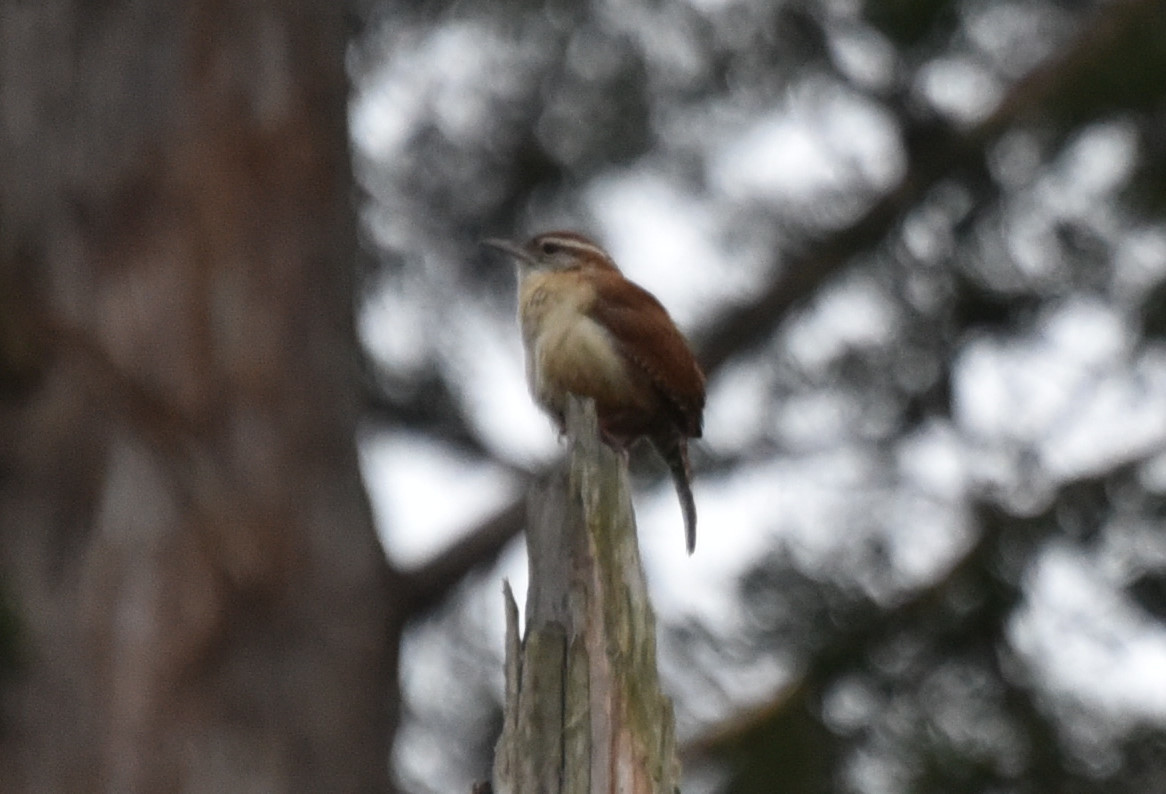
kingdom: Animalia
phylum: Chordata
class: Aves
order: Passeriformes
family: Troglodytidae
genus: Thryothorus
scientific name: Thryothorus ludovicianus
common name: Carolina wren
